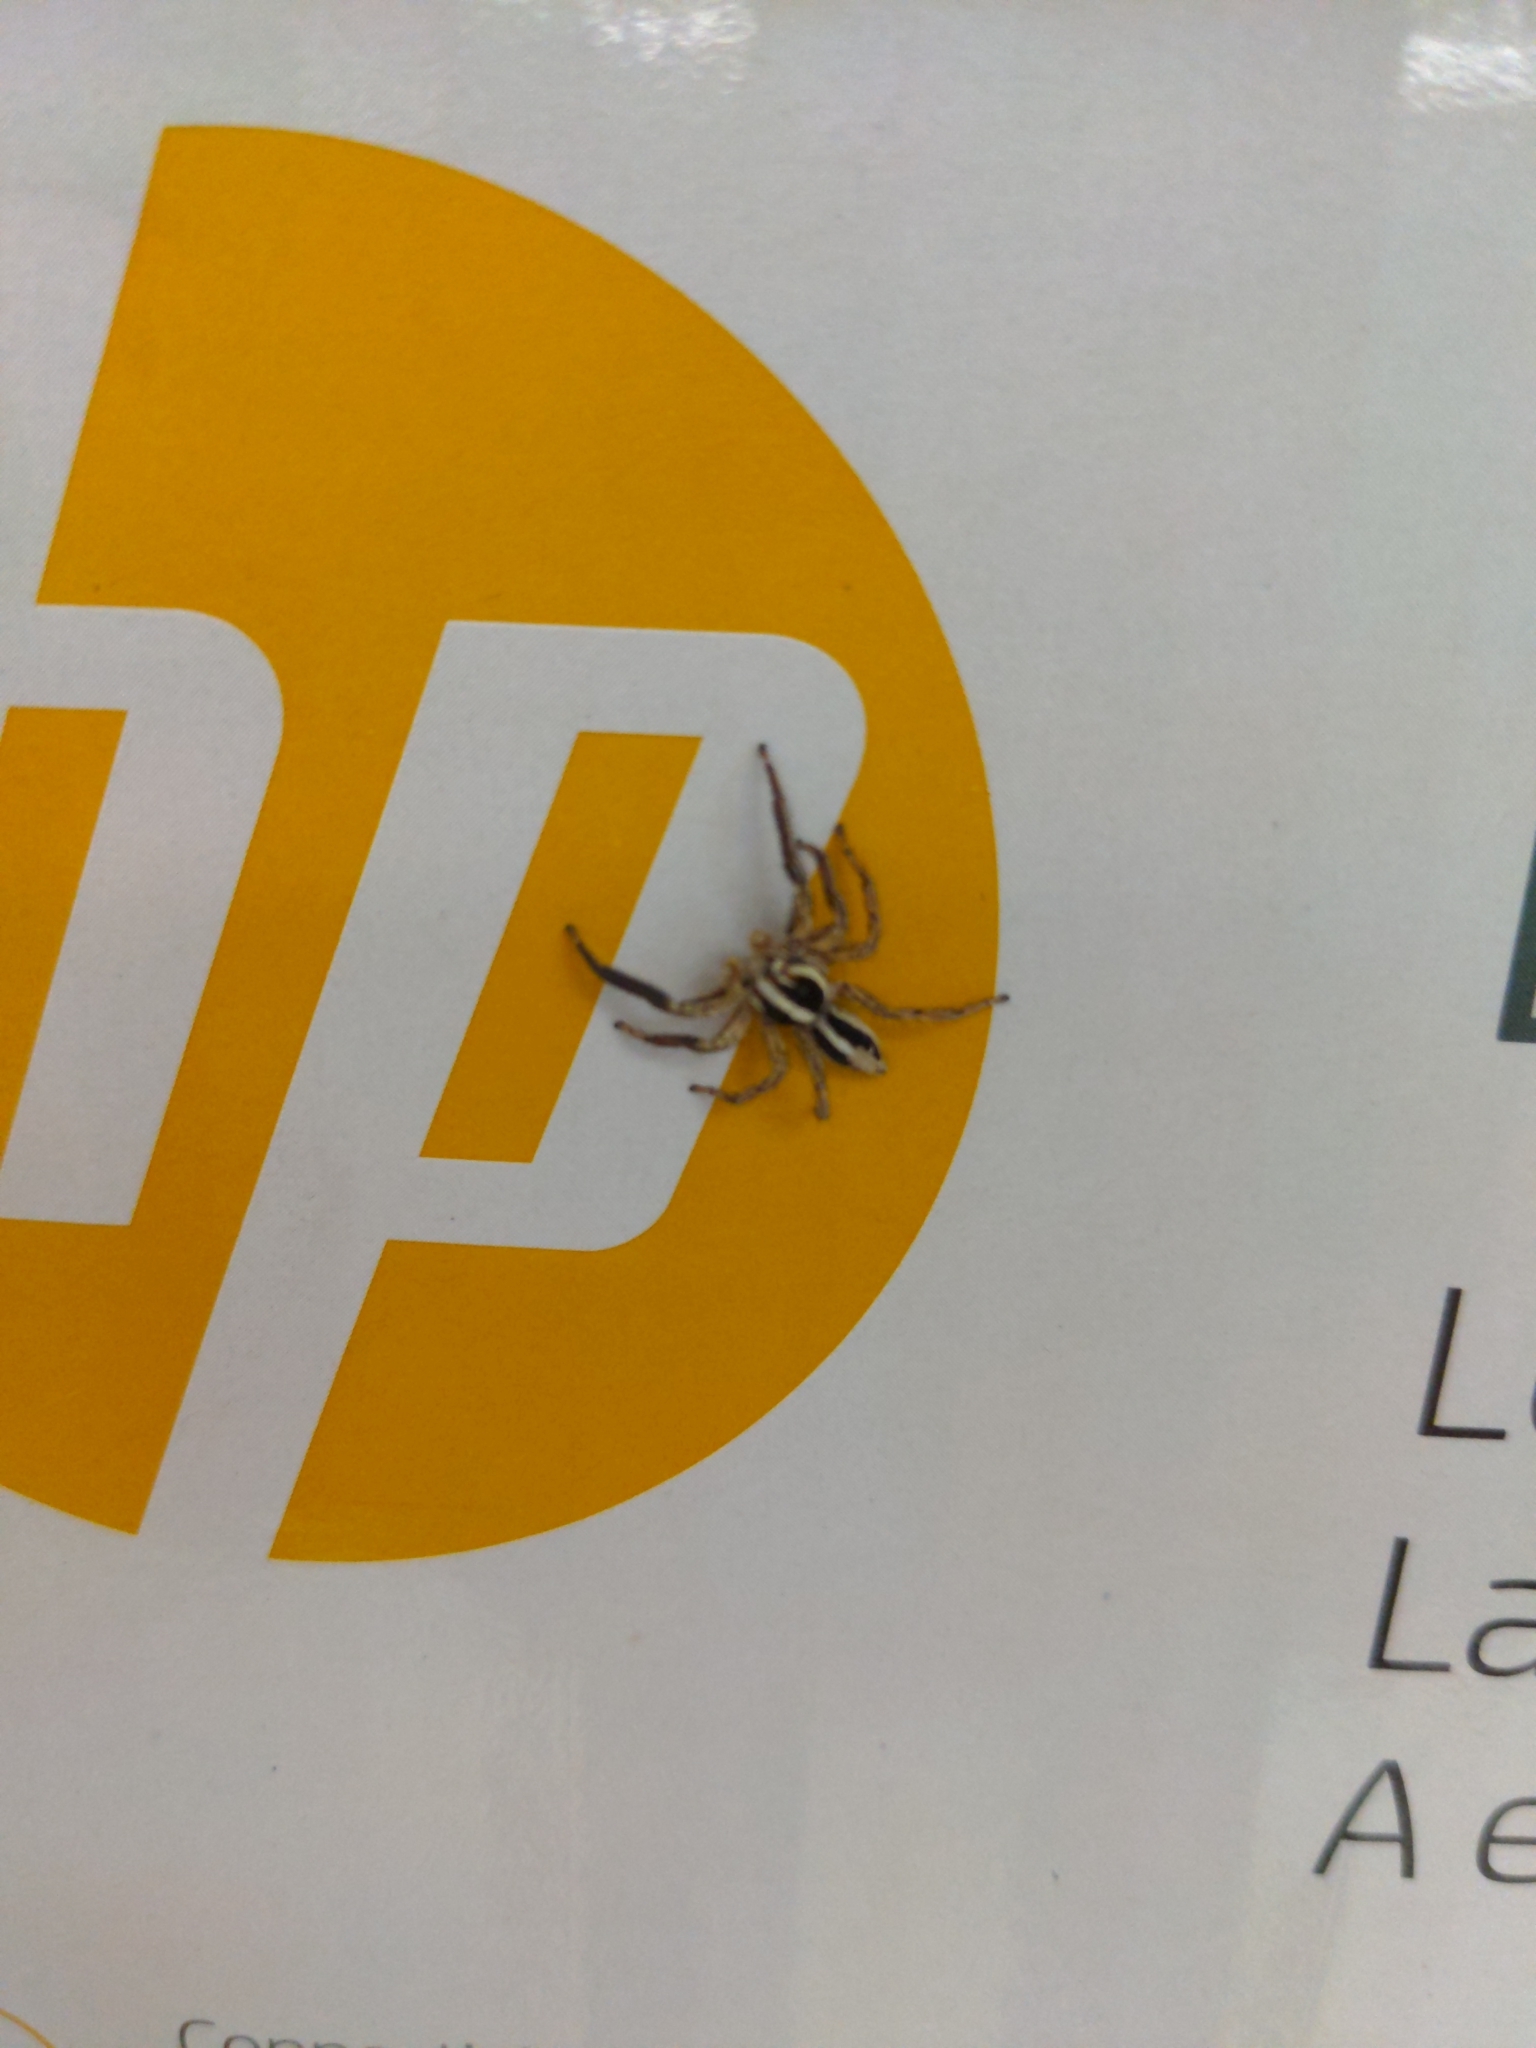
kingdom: Animalia
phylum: Arthropoda
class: Arachnida
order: Araneae
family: Salticidae
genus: Plexippus
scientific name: Plexippus paykulli
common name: Pantropical jumper
